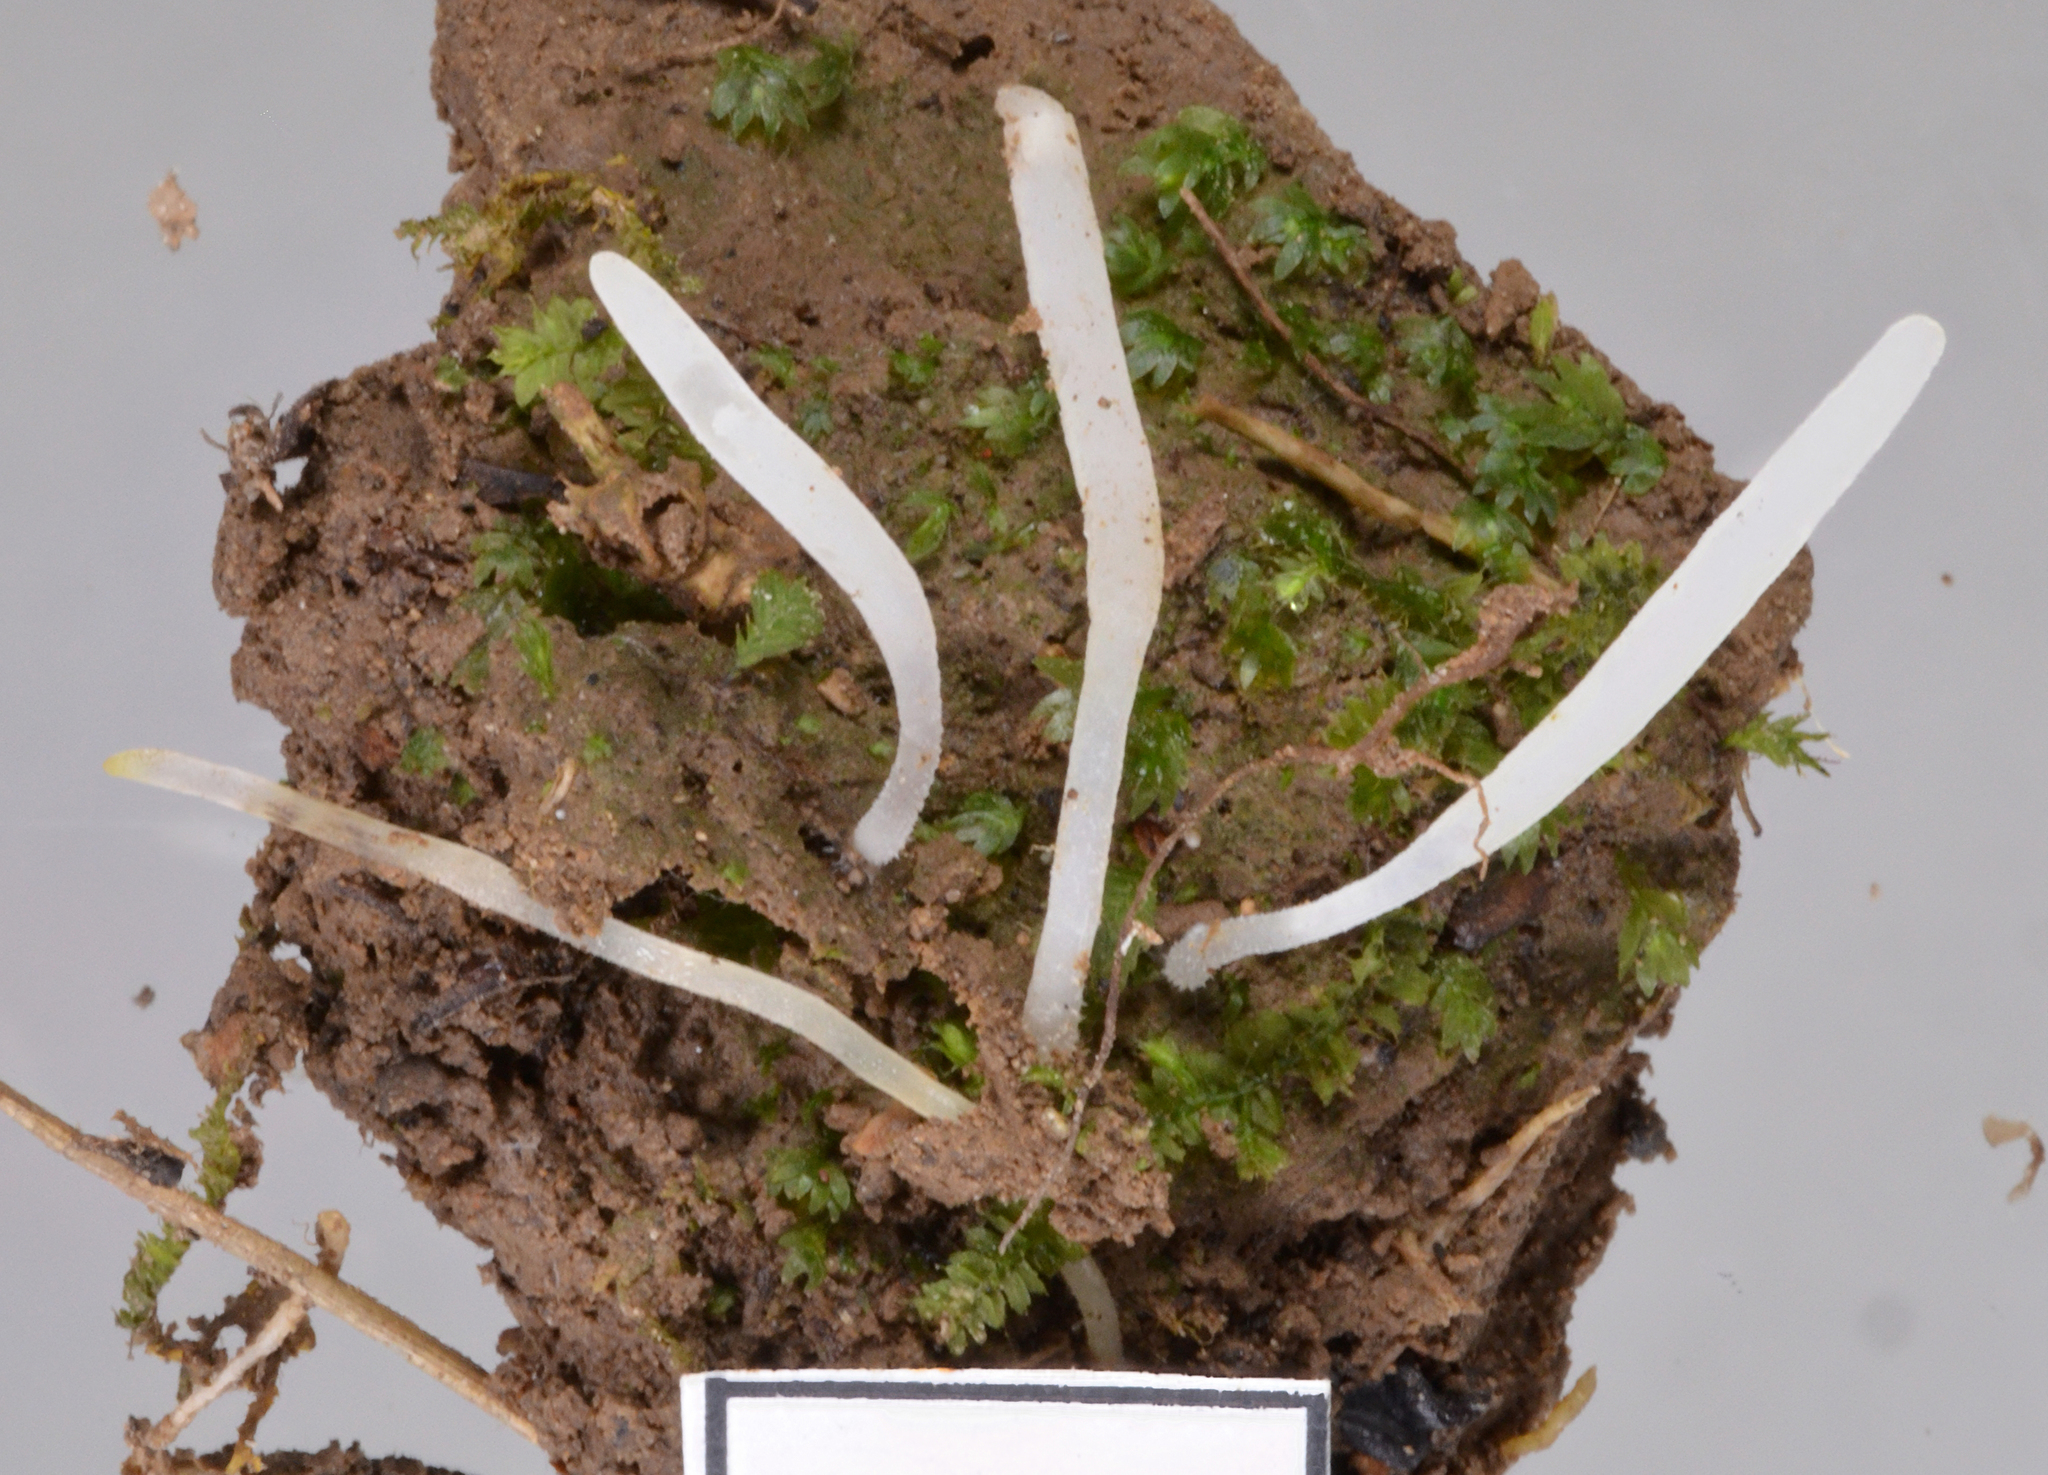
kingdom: Fungi
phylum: Basidiomycota
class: Agaricomycetes
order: Agaricales
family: Clavariaceae
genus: Clavaria
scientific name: Clavaria
